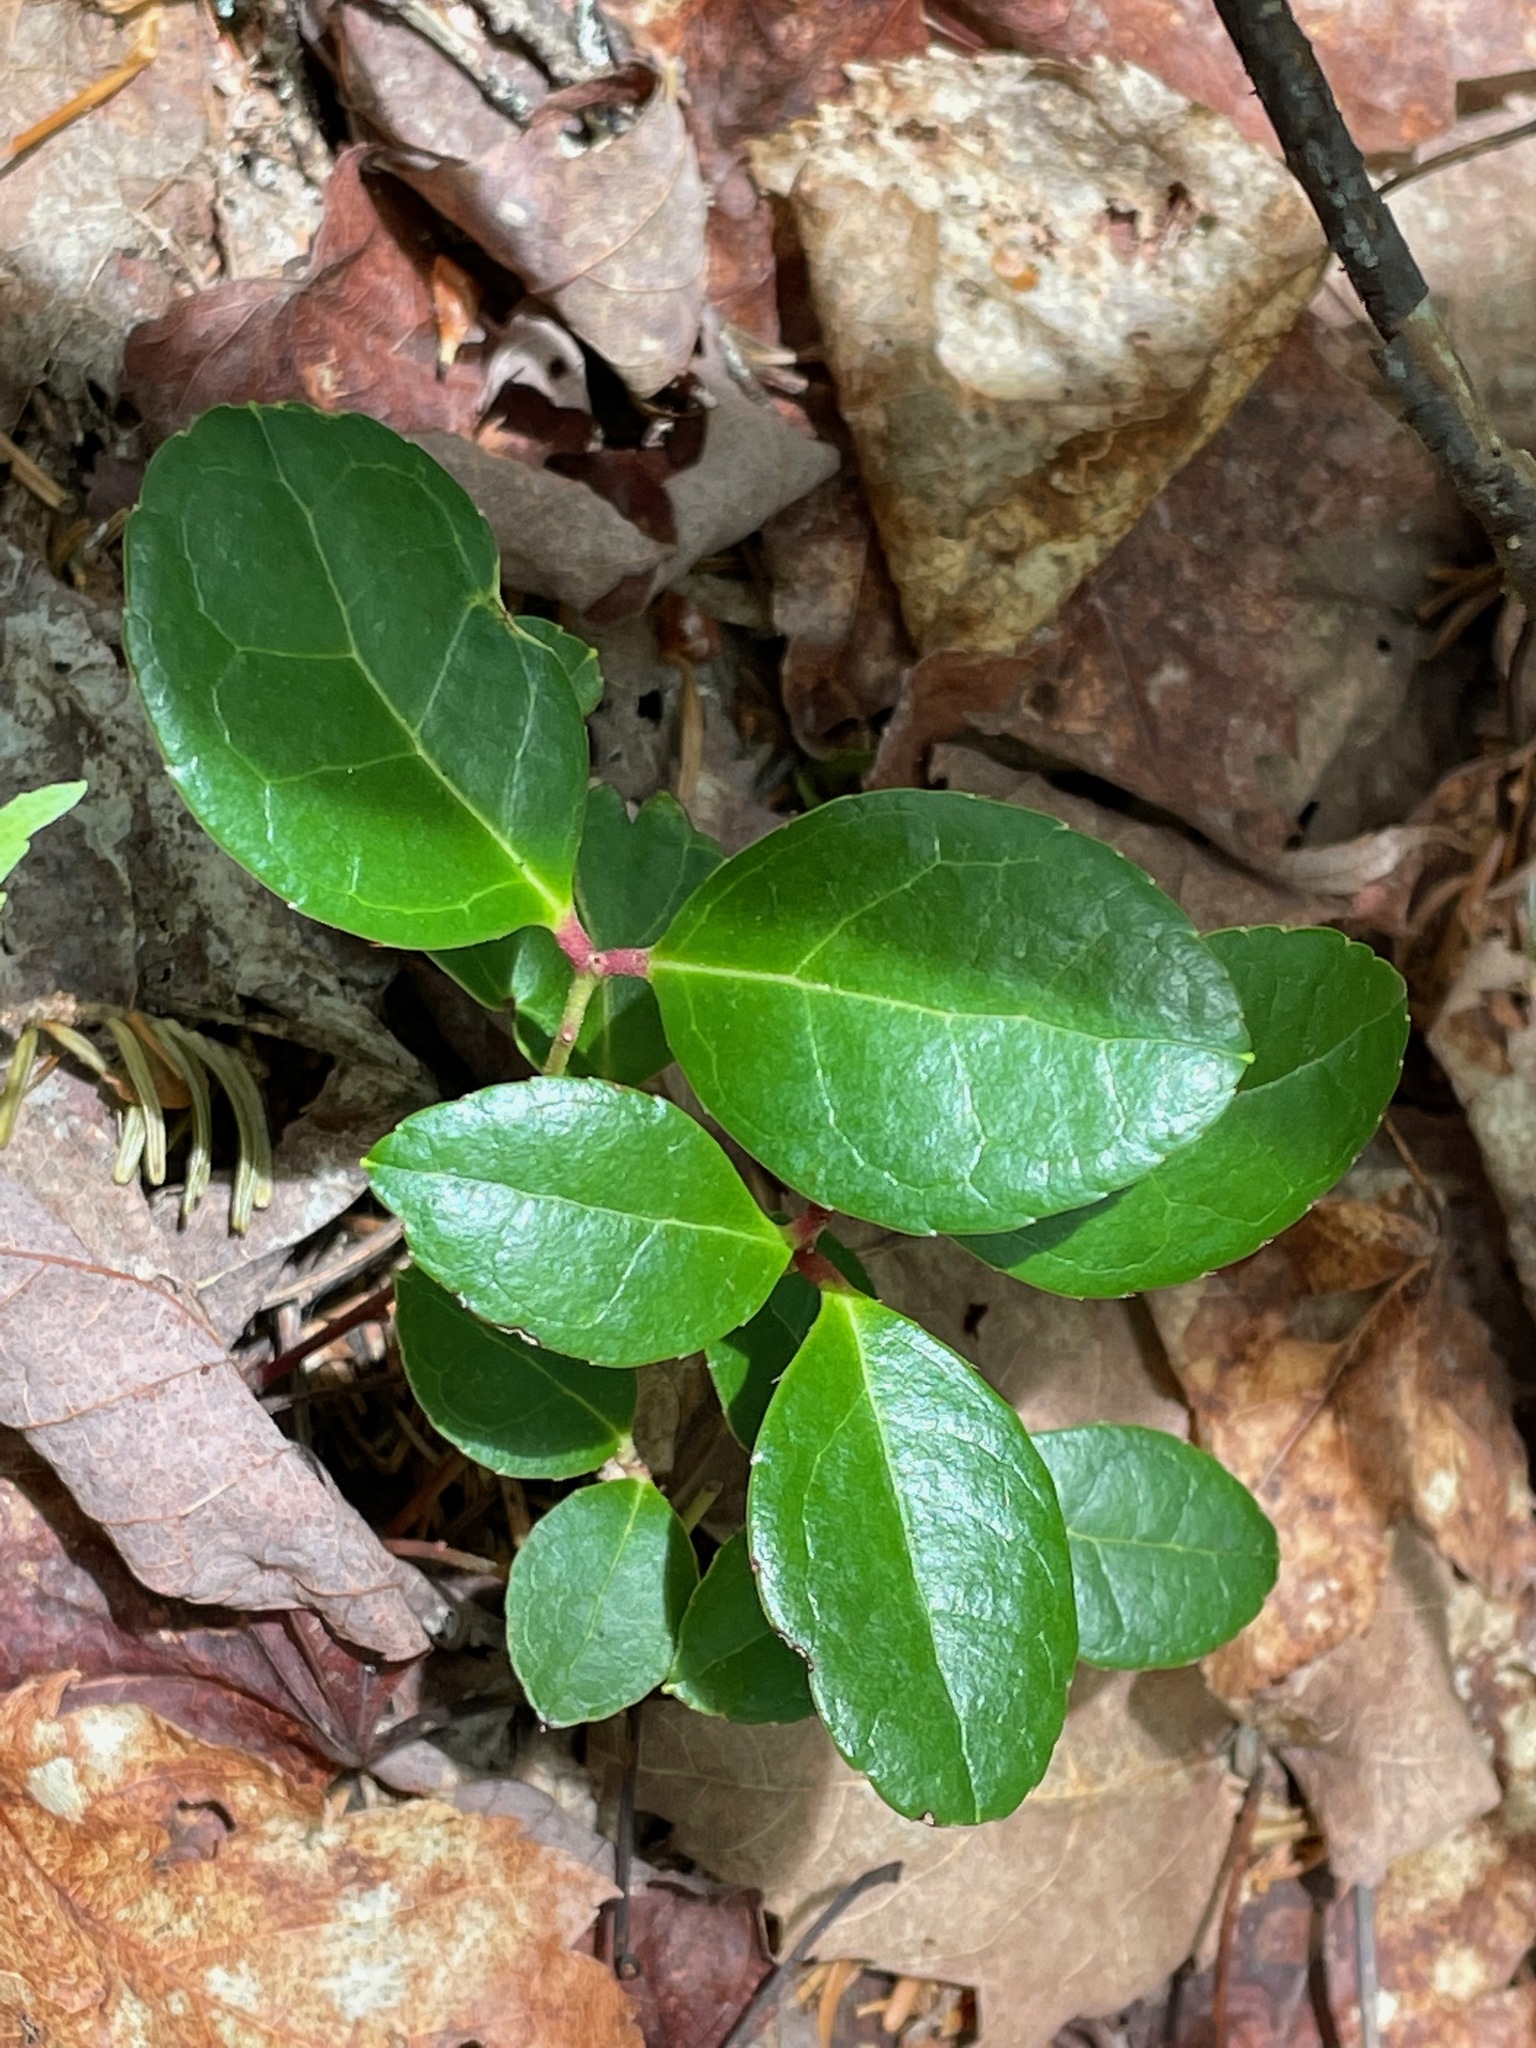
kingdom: Plantae
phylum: Tracheophyta
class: Magnoliopsida
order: Ericales
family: Ericaceae
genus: Gaultheria
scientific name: Gaultheria procumbens
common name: Checkerberry
